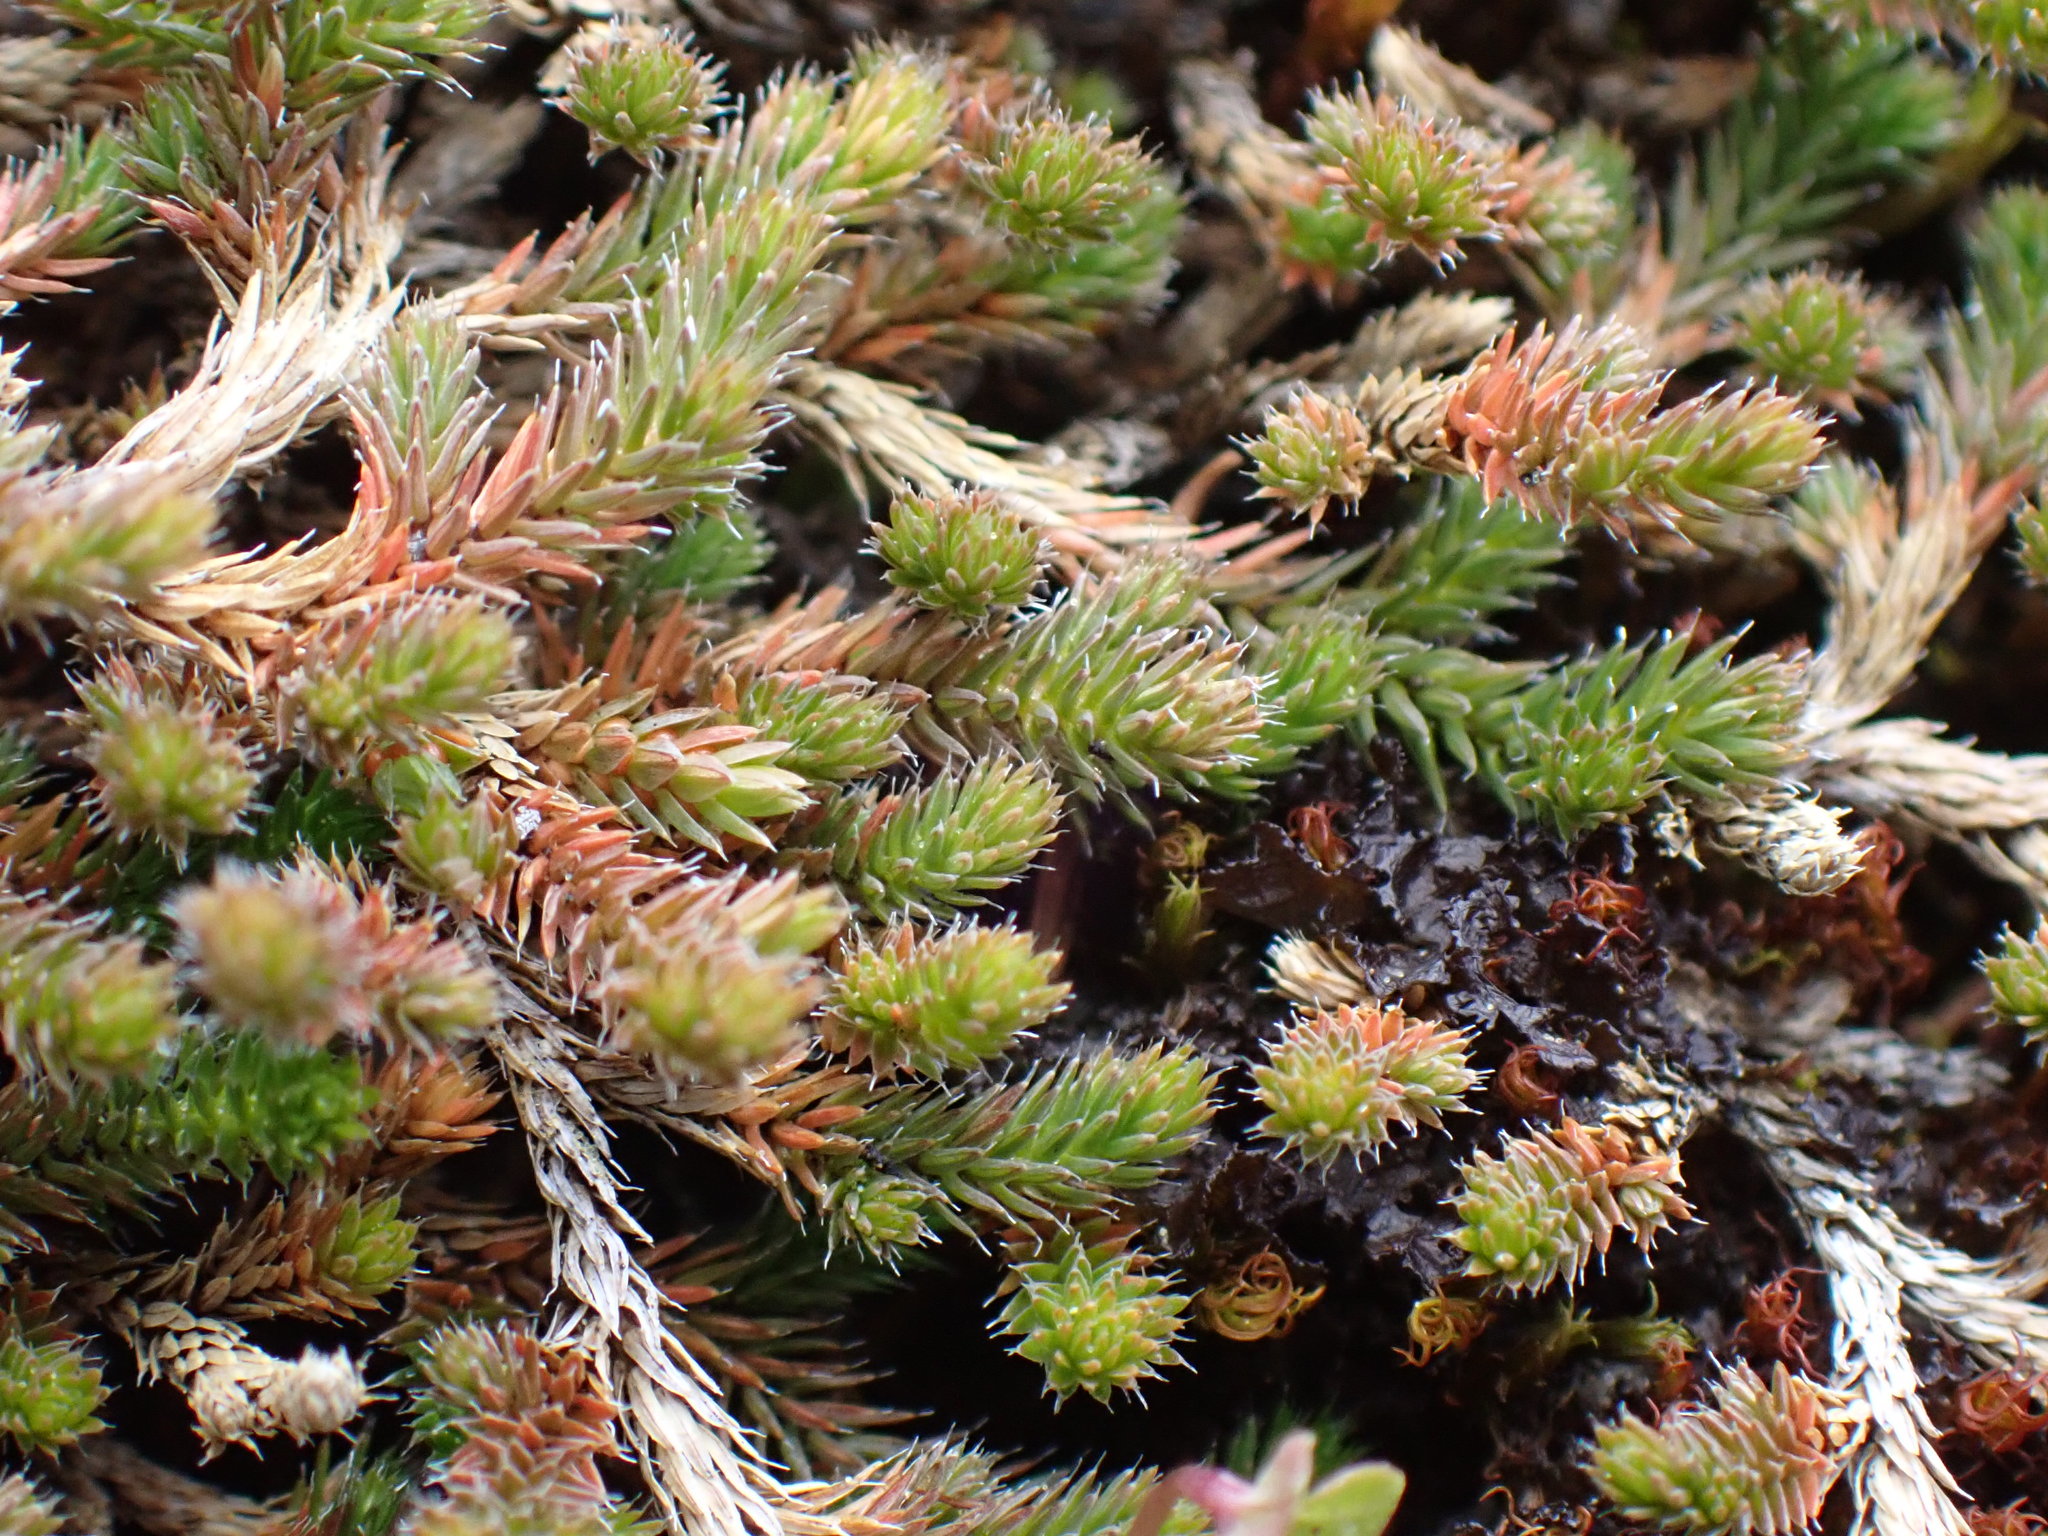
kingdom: Plantae
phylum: Tracheophyta
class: Lycopodiopsida
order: Selaginellales
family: Selaginellaceae
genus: Selaginella
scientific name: Selaginella wallacei
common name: Wallace's selaginella
